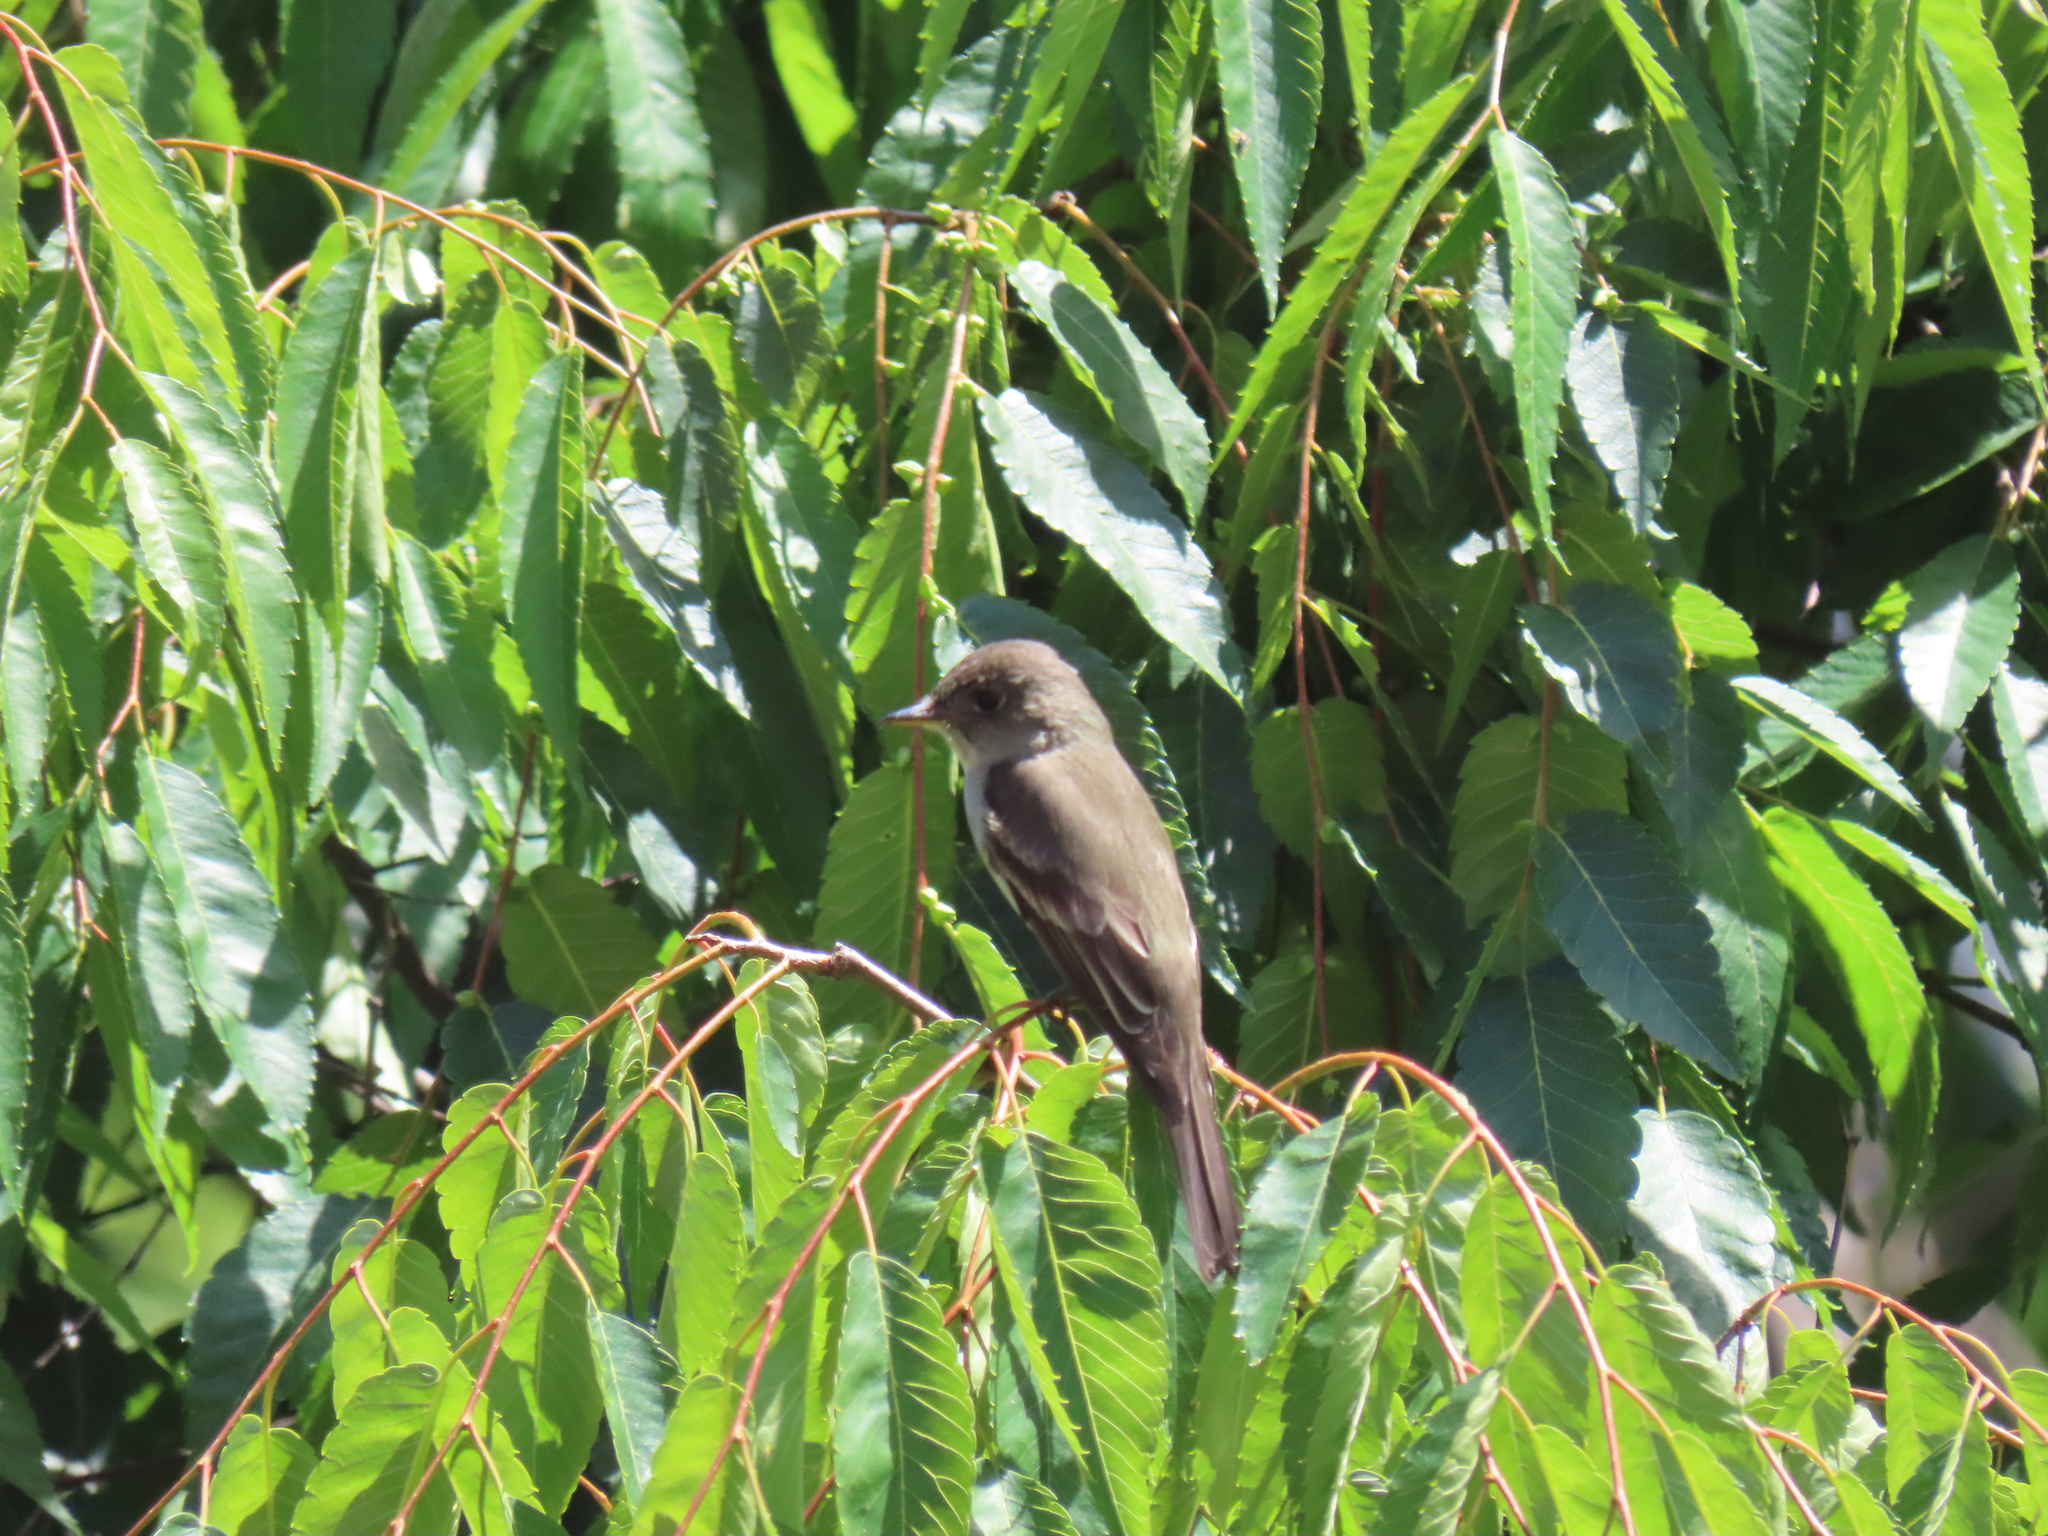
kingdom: Animalia
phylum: Chordata
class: Aves
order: Passeriformes
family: Tyrannidae
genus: Contopus
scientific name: Contopus virens
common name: Eastern wood-pewee
